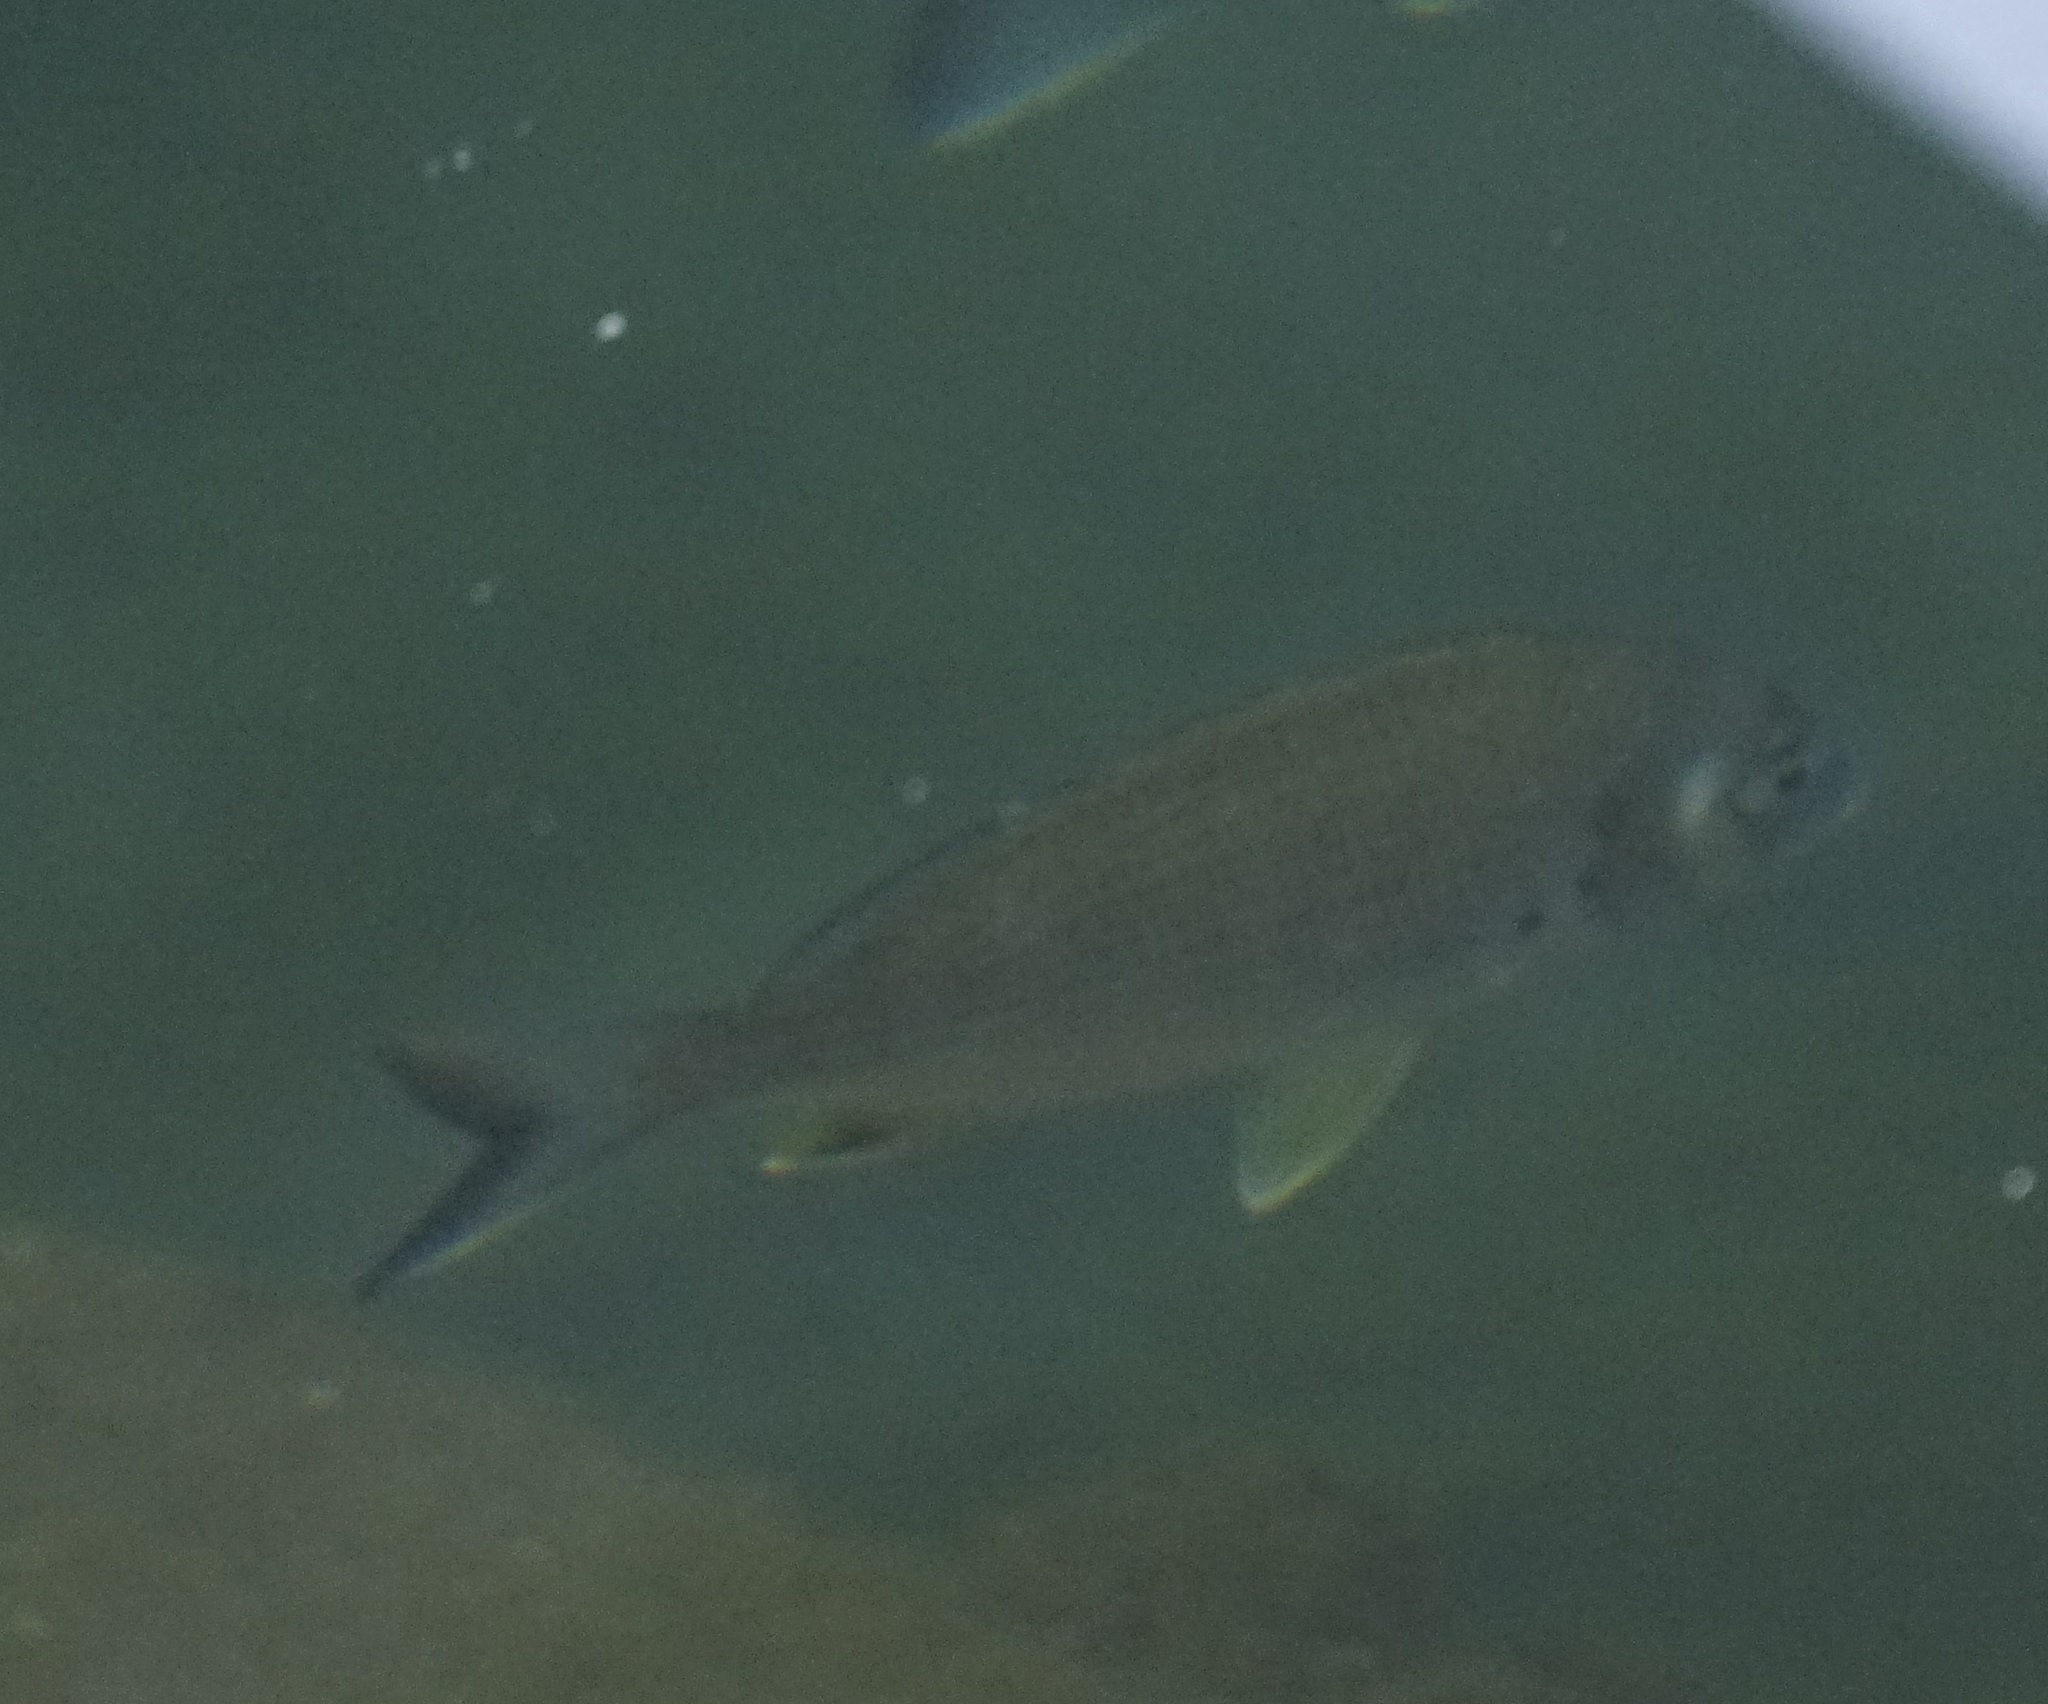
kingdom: Animalia
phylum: Chordata
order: Perciformes
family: Sparidae
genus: Acanthopagrus
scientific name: Acanthopagrus australis
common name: Surf bream
